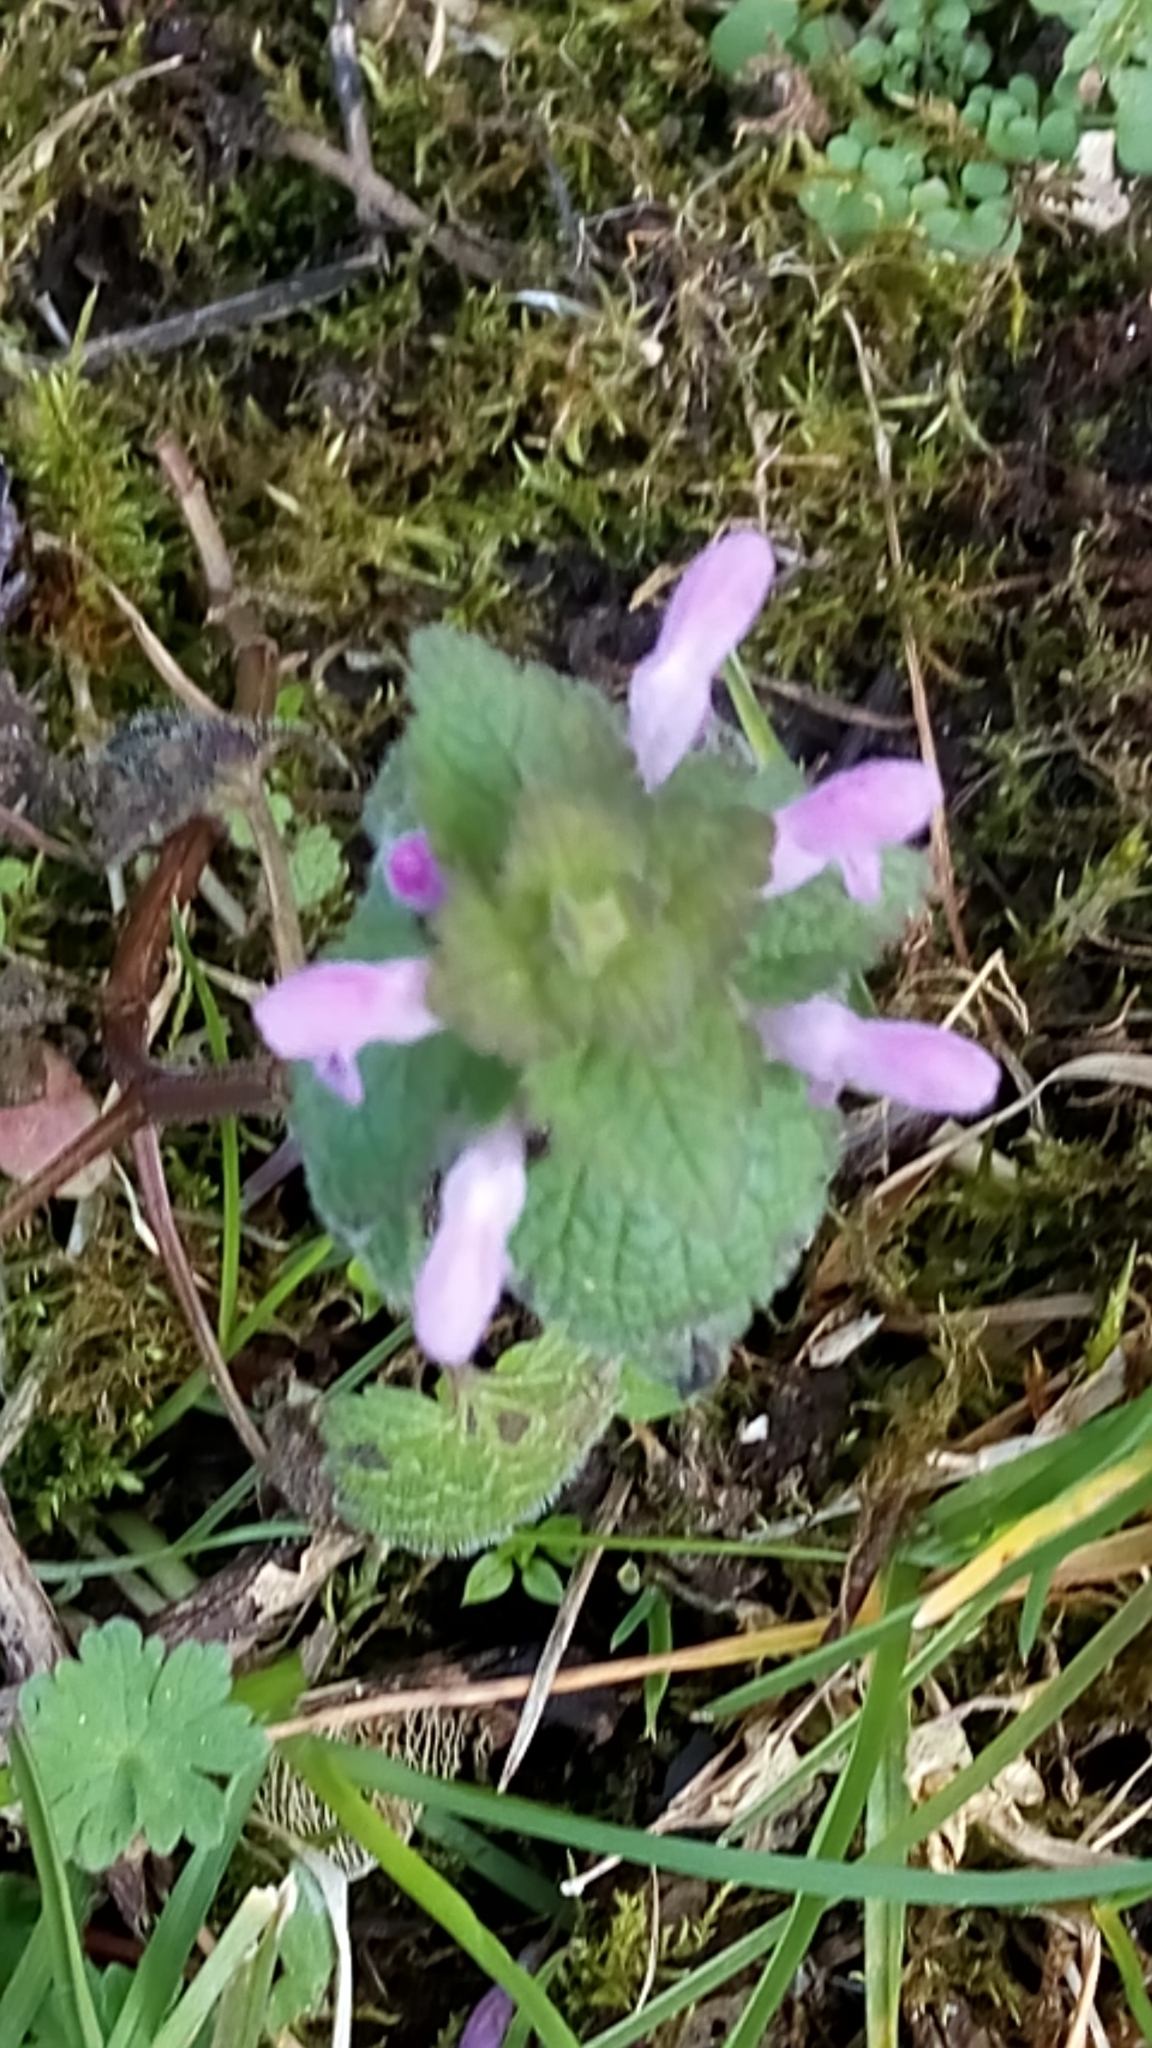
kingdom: Plantae
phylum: Tracheophyta
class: Magnoliopsida
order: Lamiales
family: Lamiaceae
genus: Lamium
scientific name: Lamium purpureum
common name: Red dead-nettle
